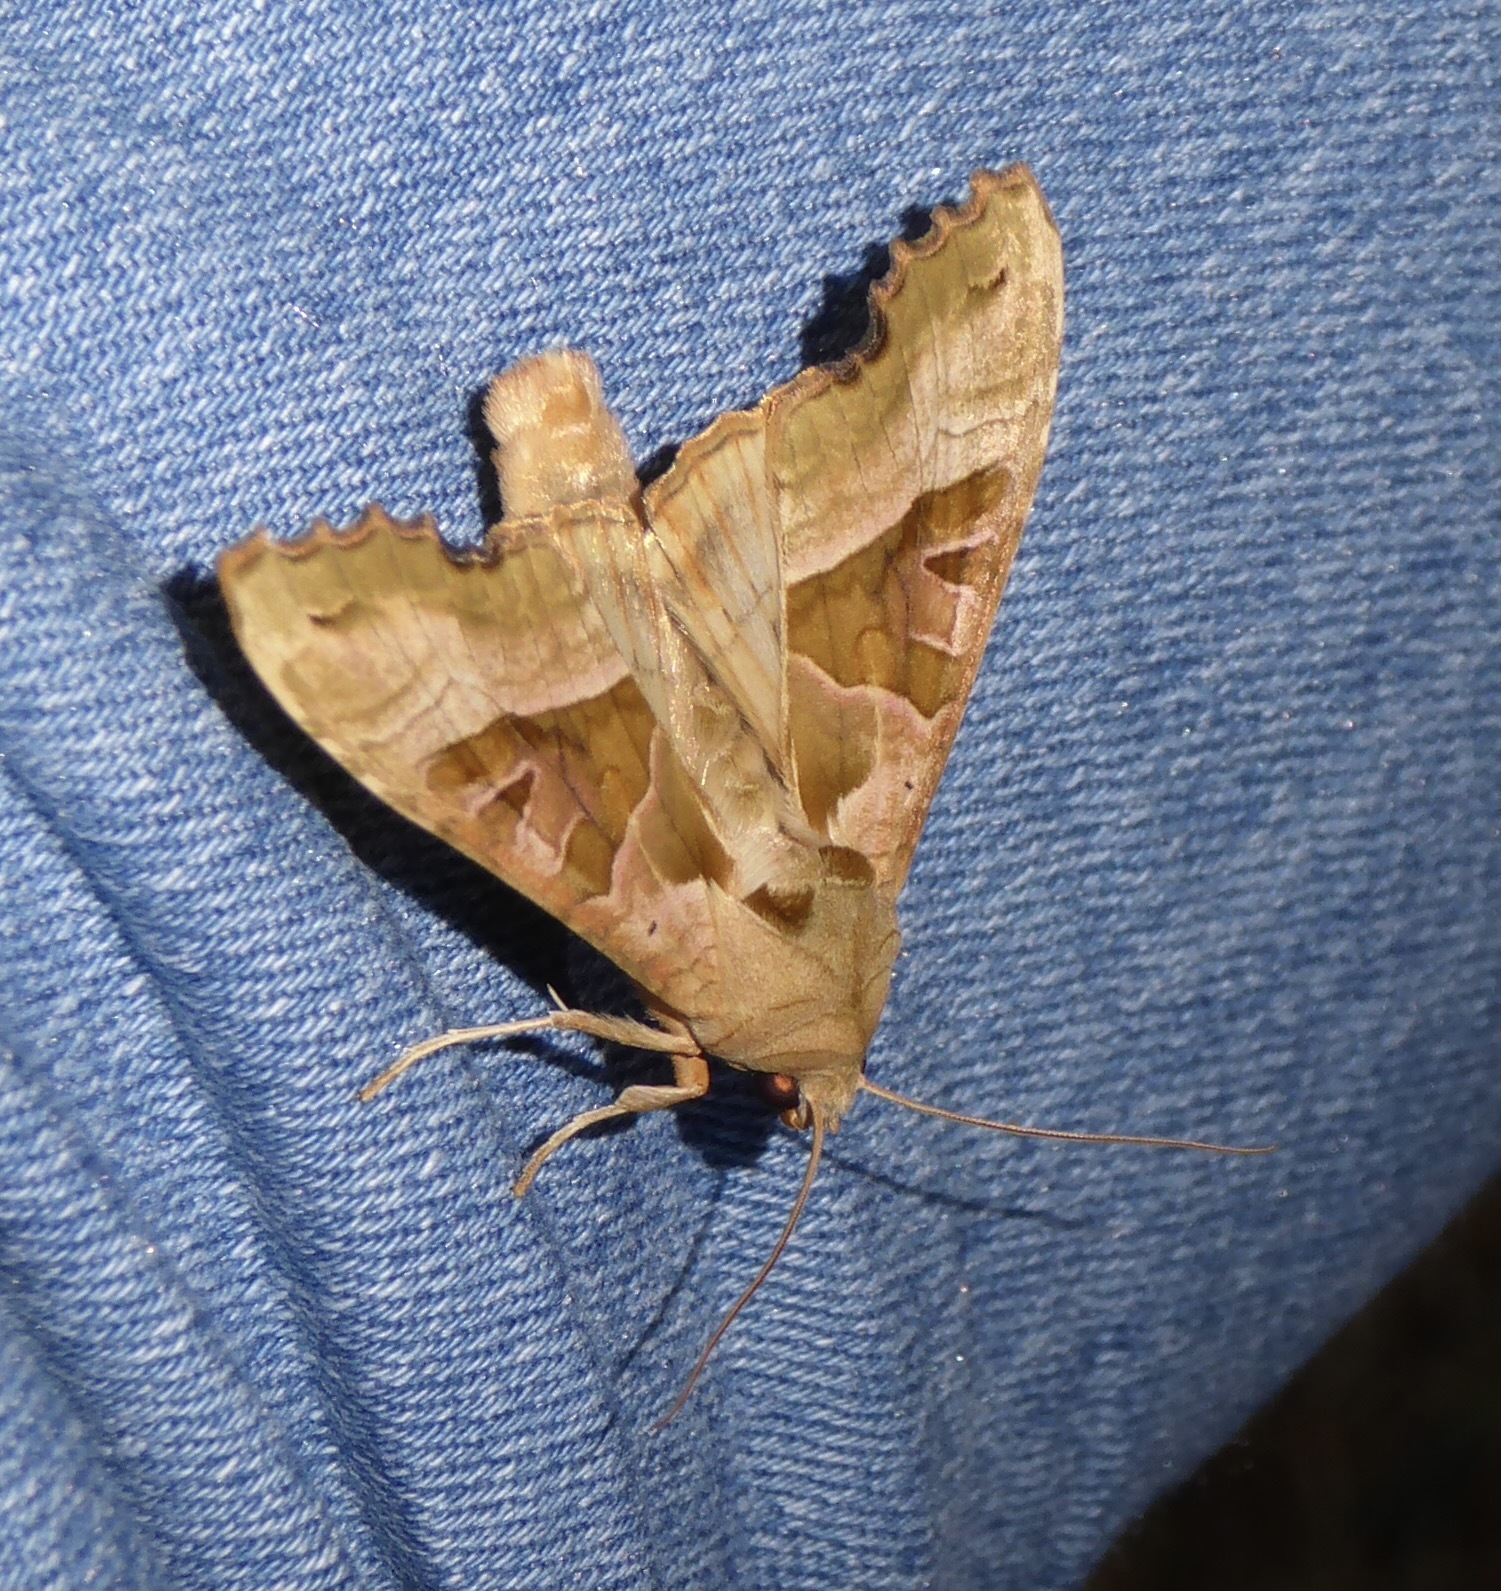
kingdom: Animalia
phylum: Arthropoda
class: Insecta
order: Lepidoptera
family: Noctuidae
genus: Phlogophora
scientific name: Phlogophora meticulosa
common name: Angle shades
